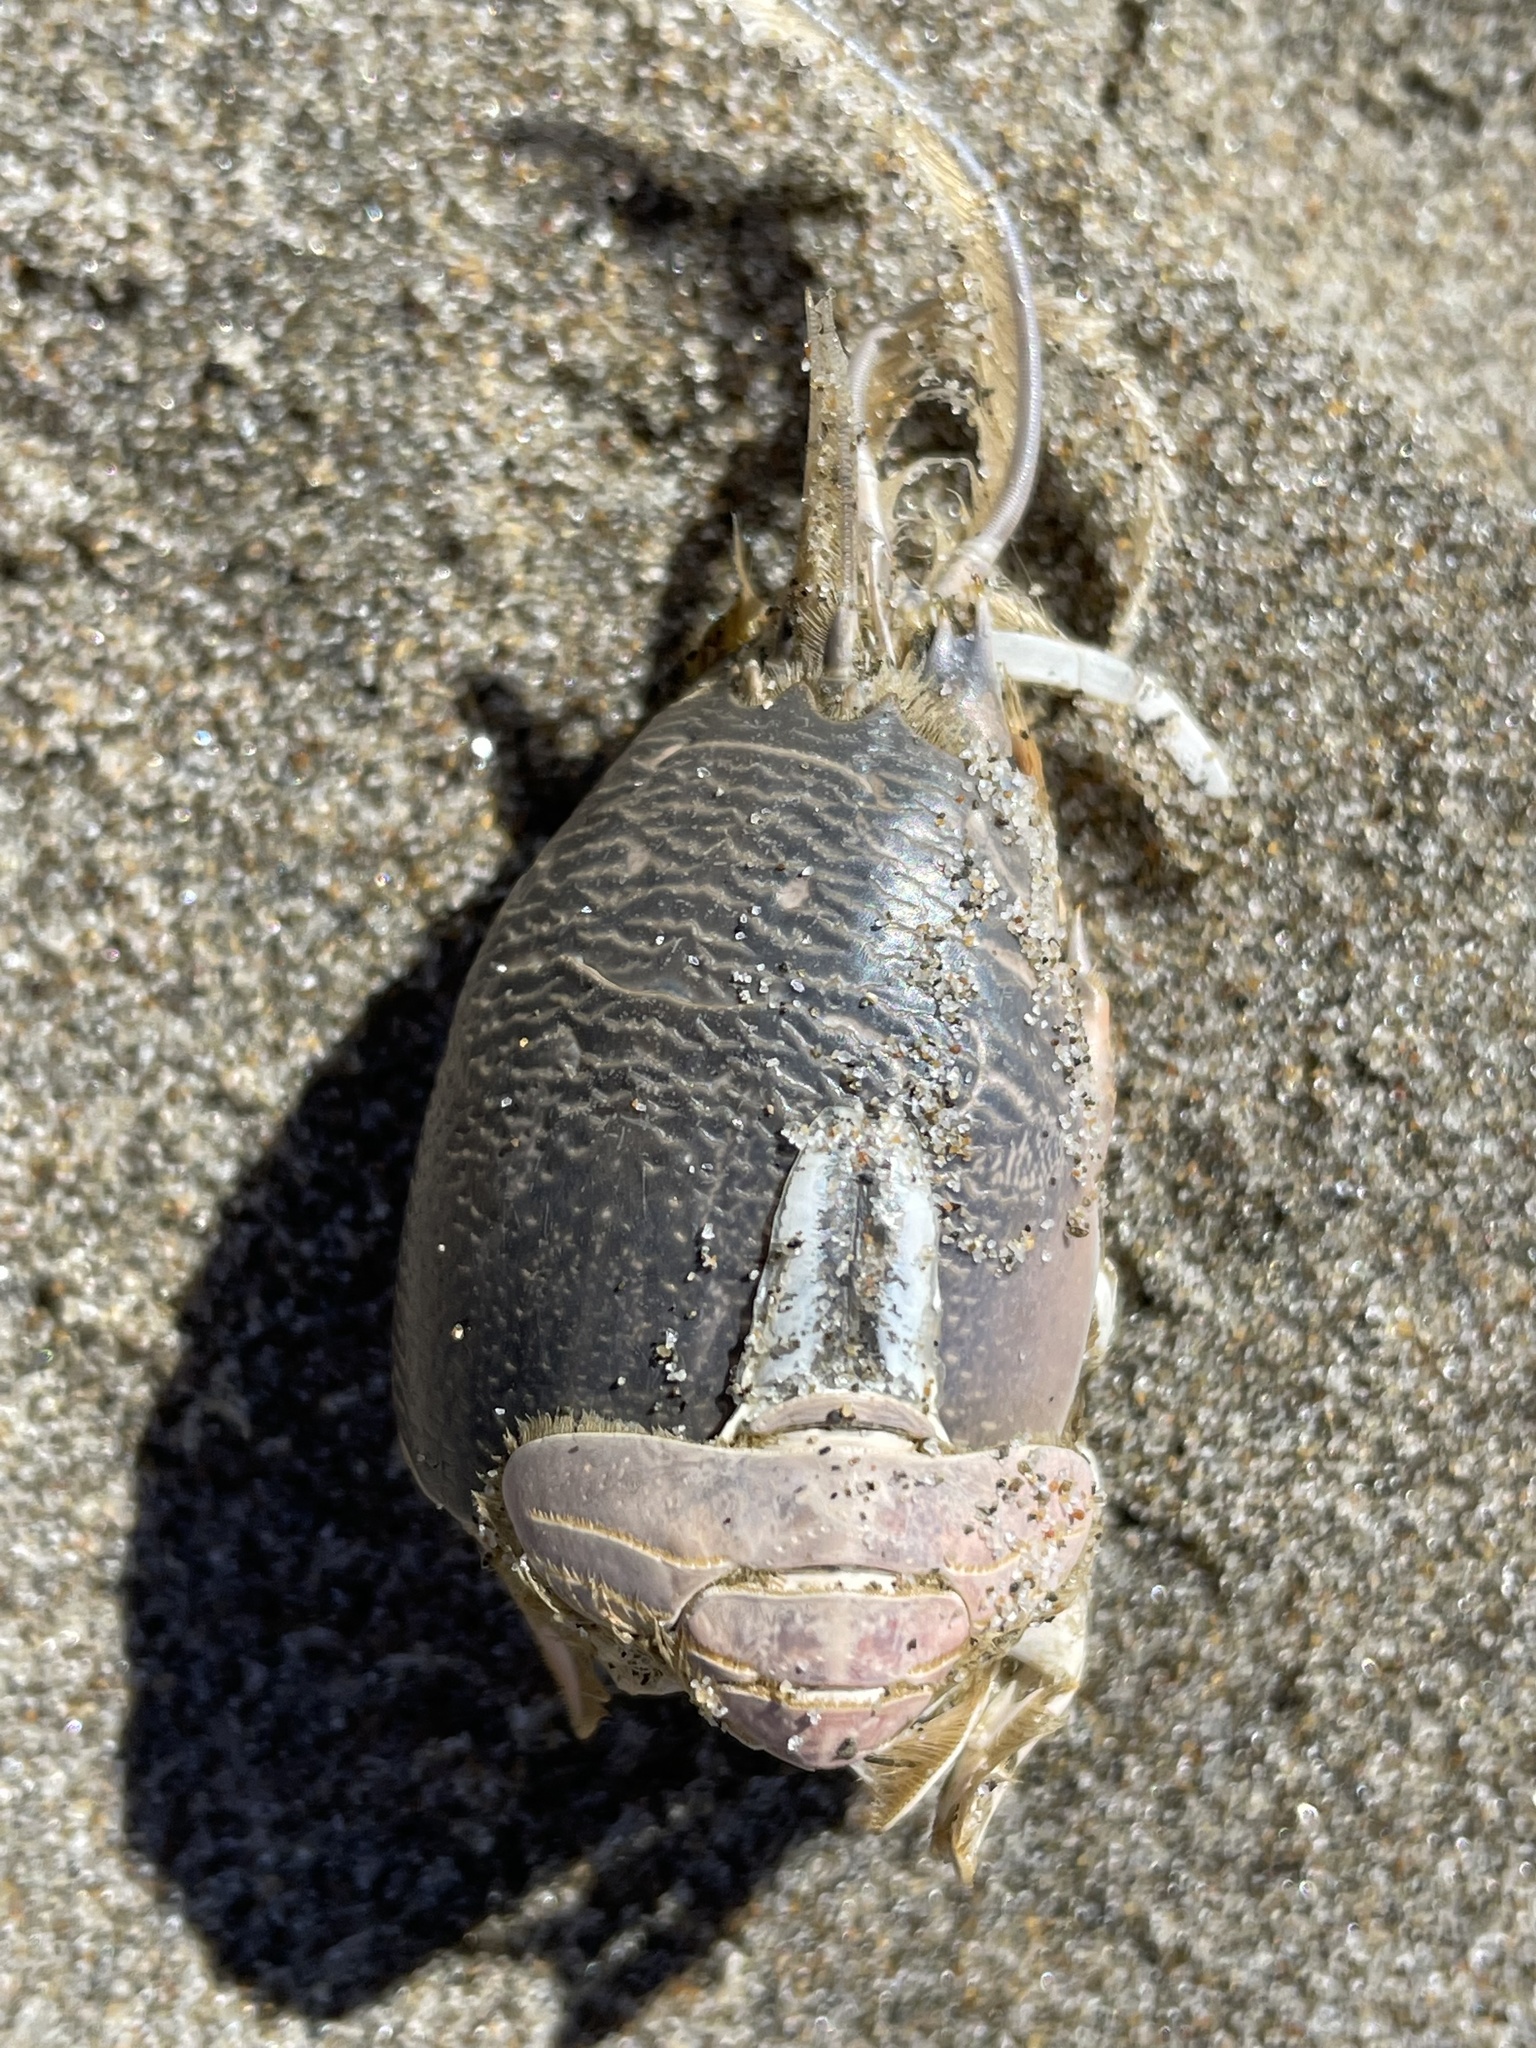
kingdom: Animalia
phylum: Arthropoda
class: Malacostraca
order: Decapoda
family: Hippidae
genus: Emerita
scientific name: Emerita analoga
